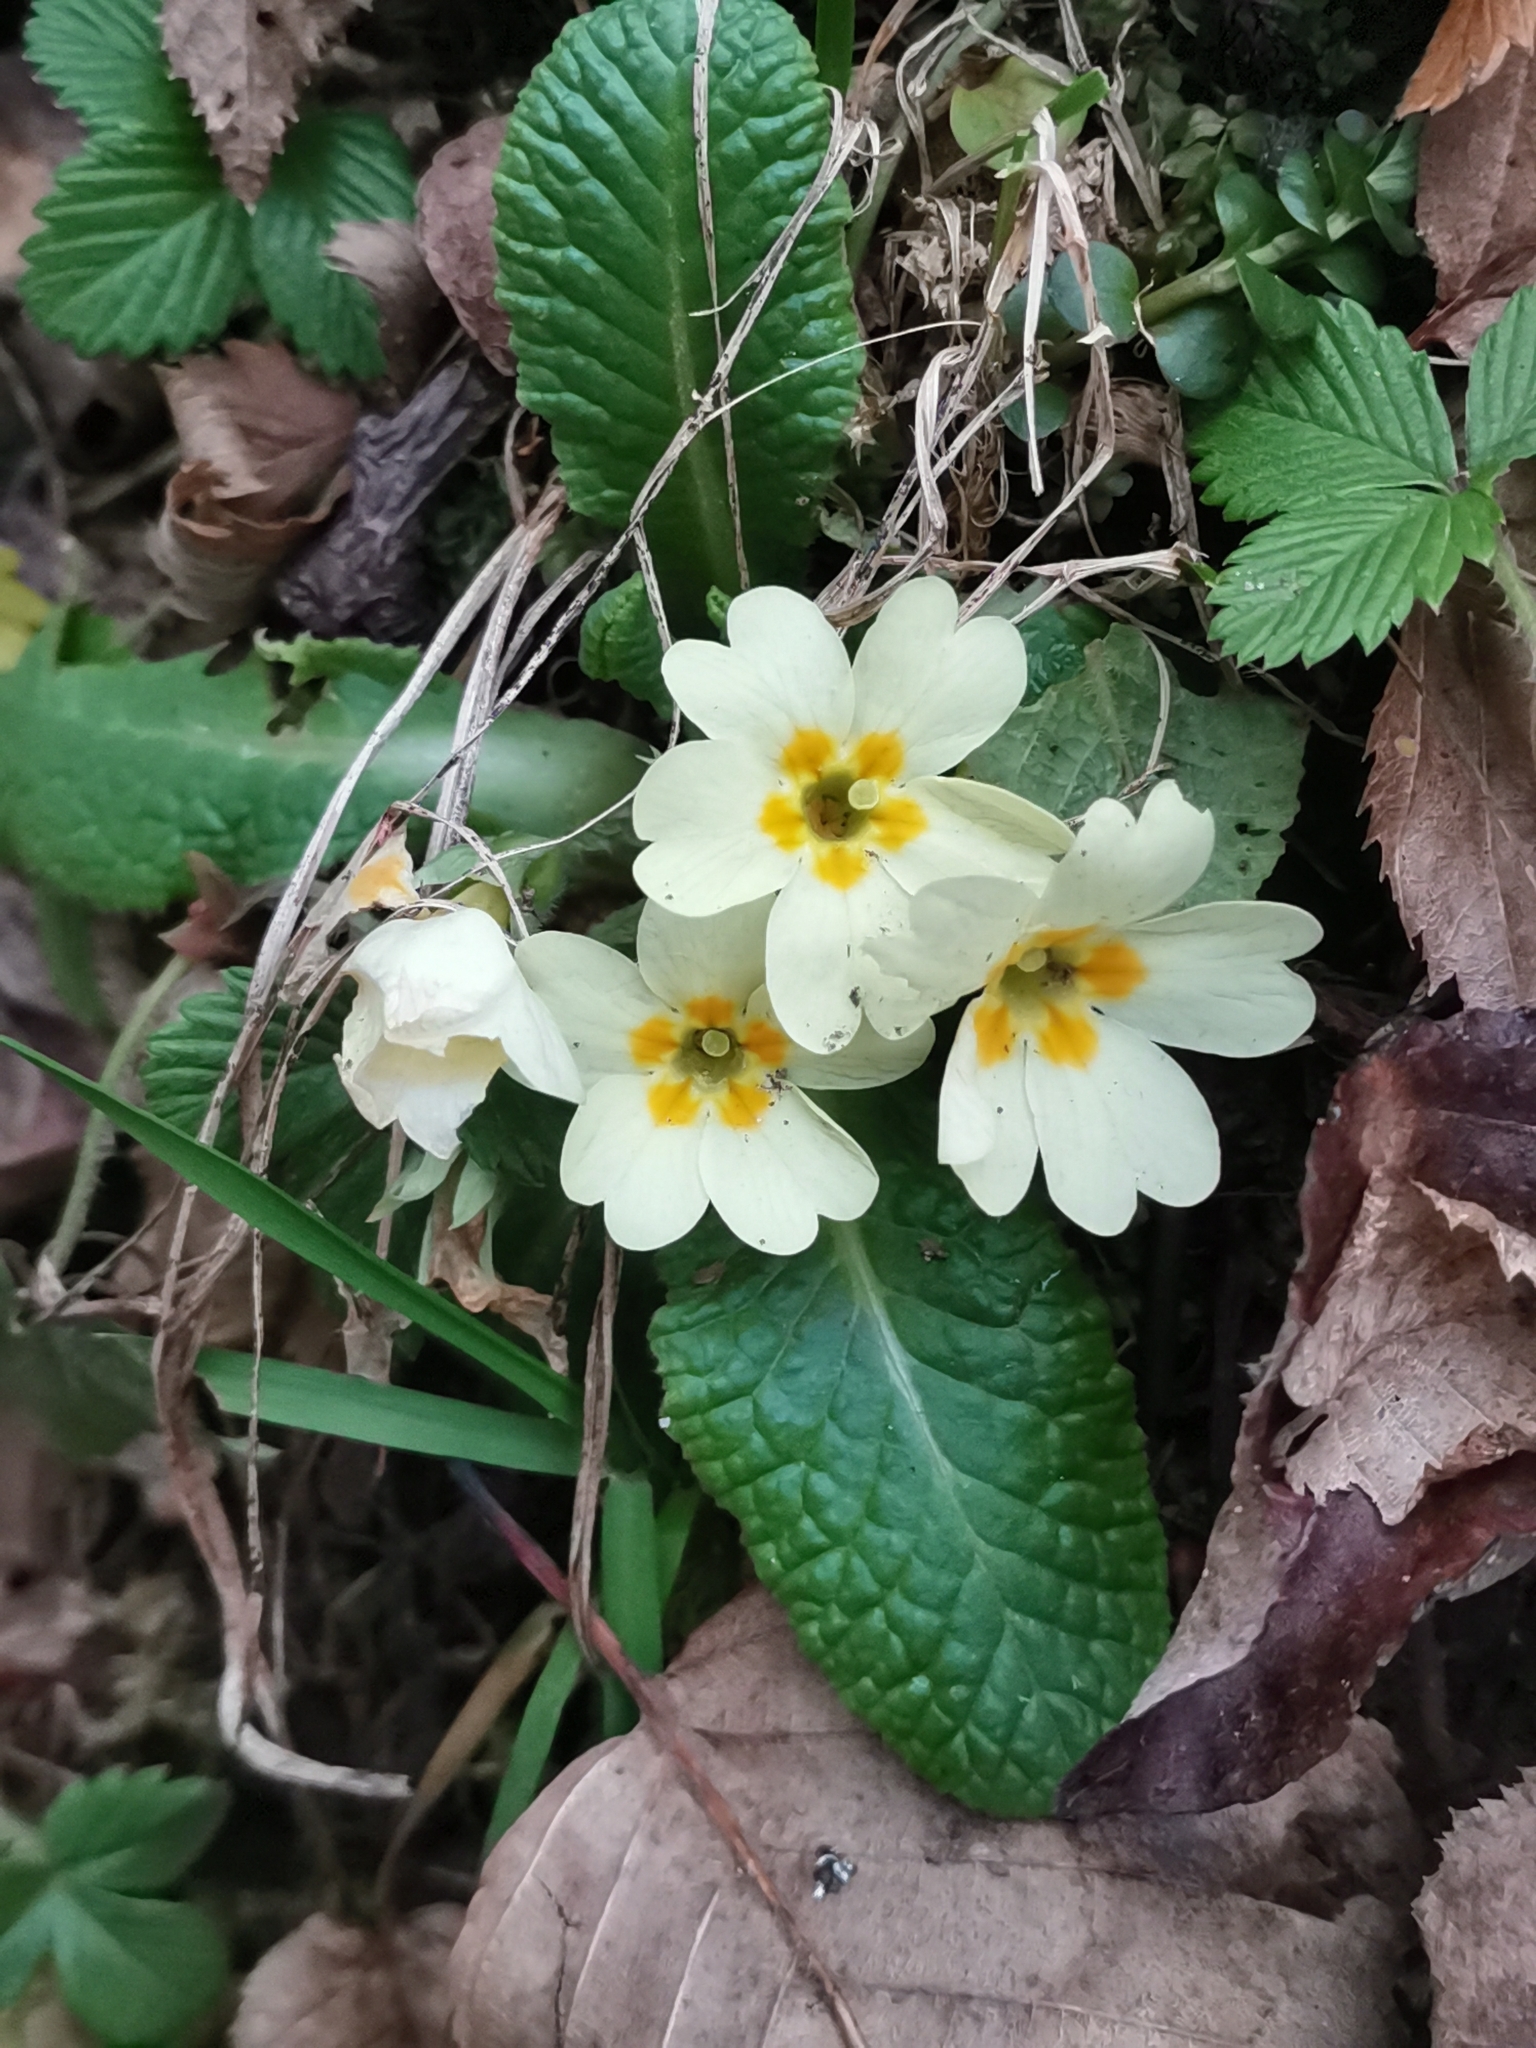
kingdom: Plantae
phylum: Tracheophyta
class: Magnoliopsida
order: Ericales
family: Primulaceae
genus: Primula
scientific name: Primula vulgaris
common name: Primrose
